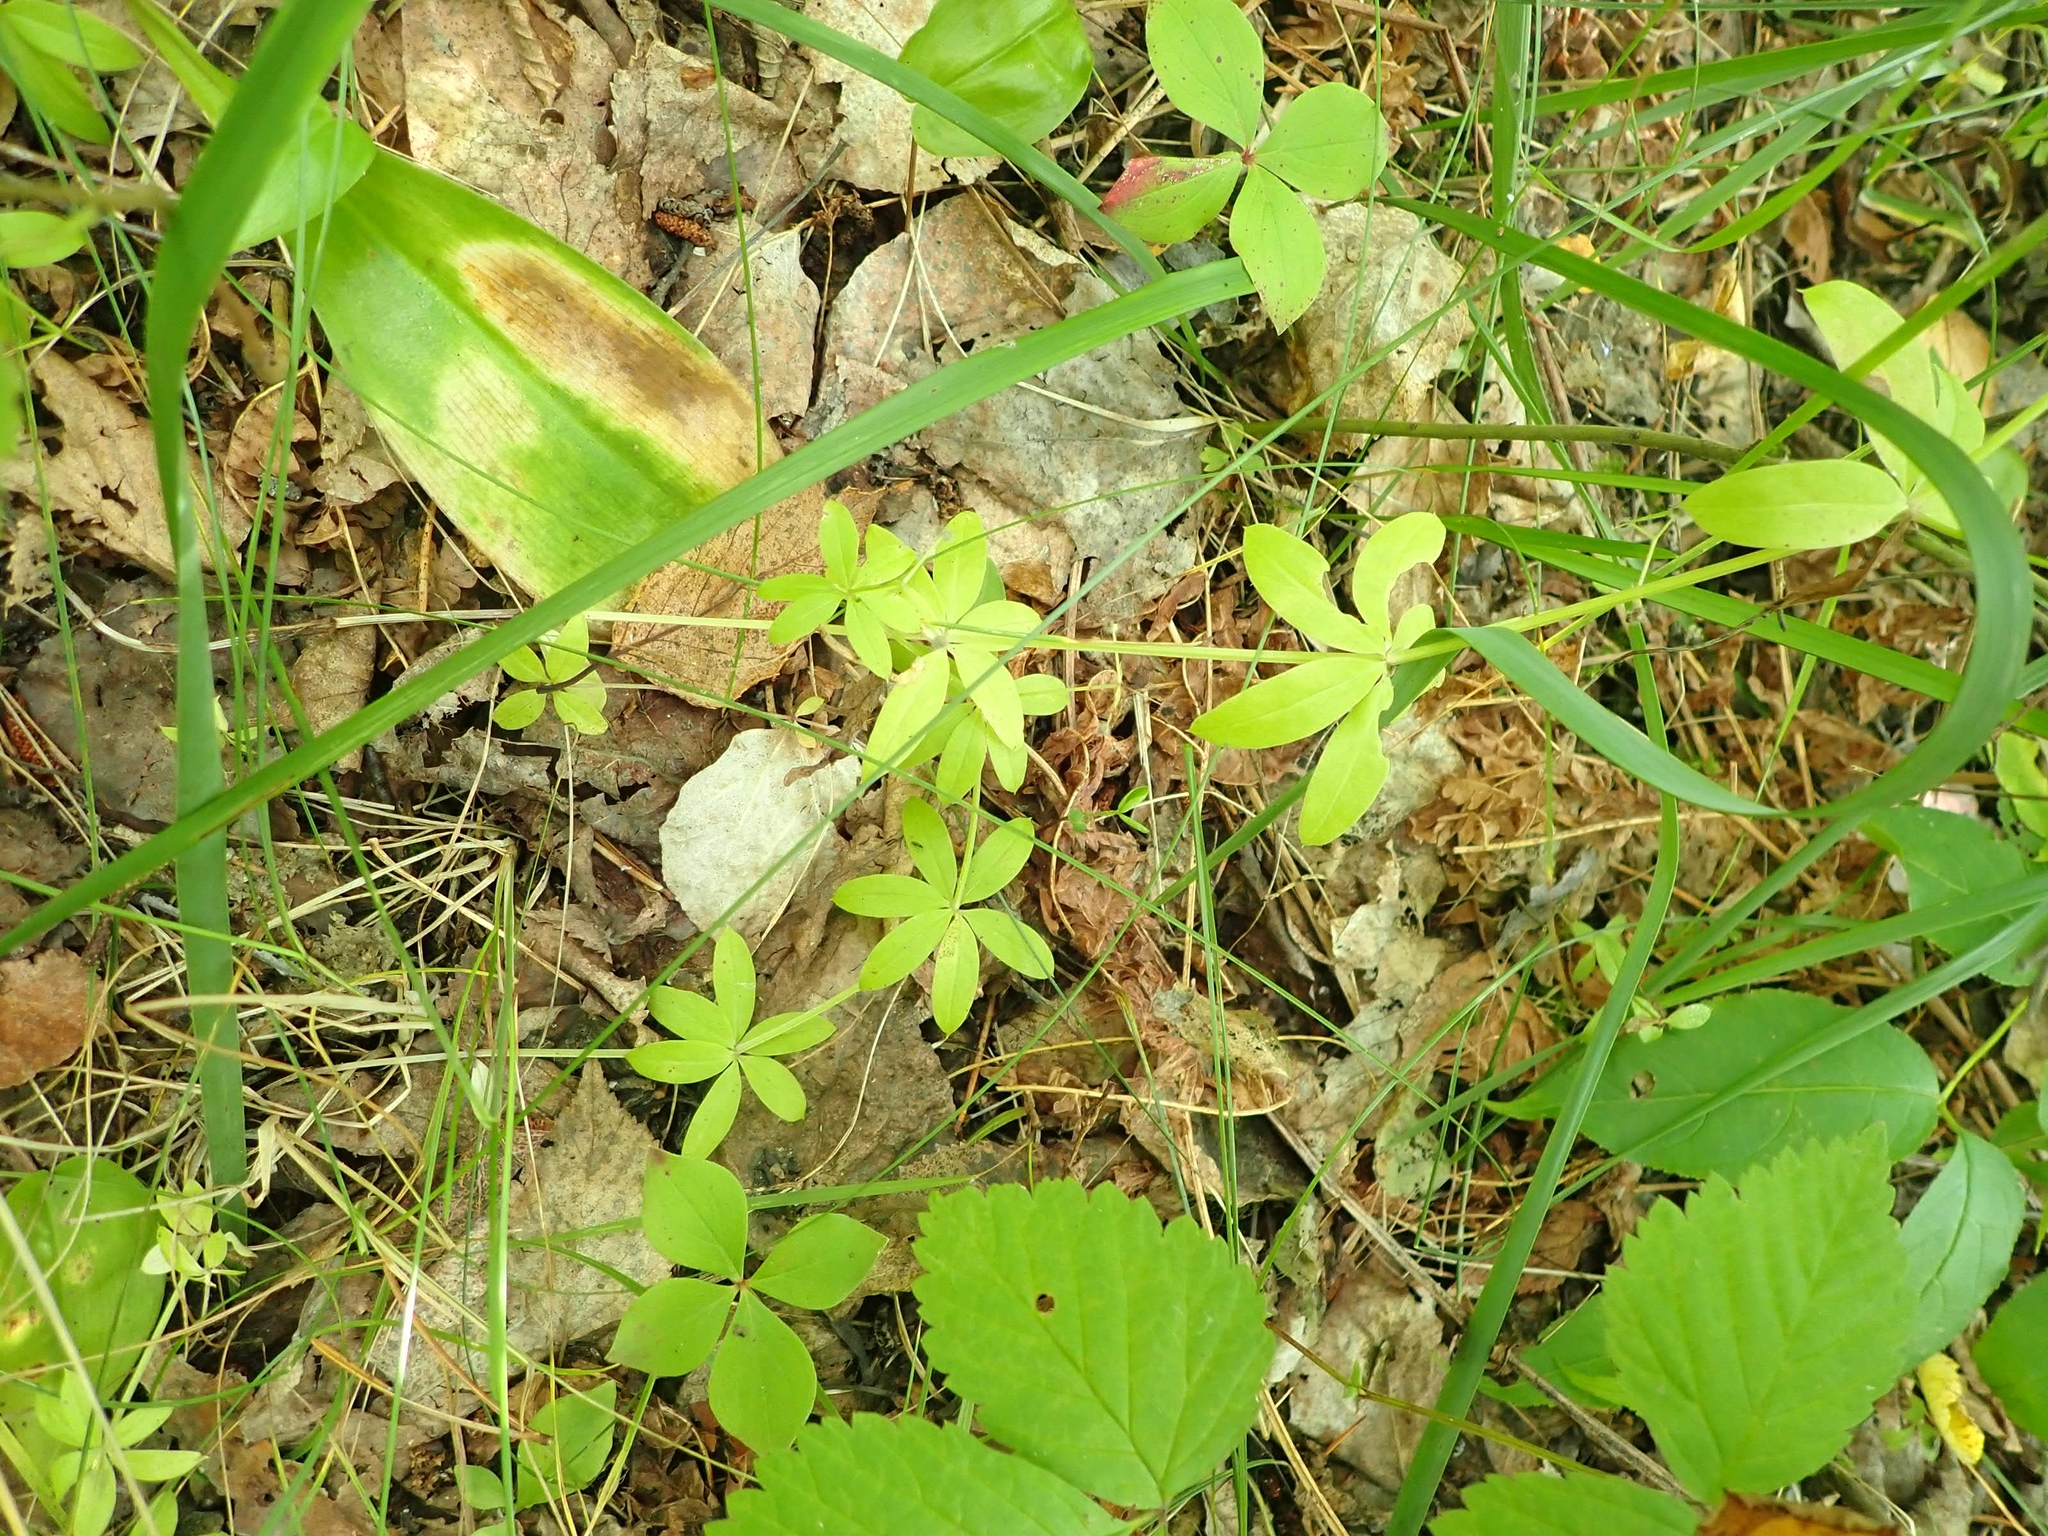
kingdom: Plantae
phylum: Tracheophyta
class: Magnoliopsida
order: Gentianales
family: Rubiaceae
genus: Galium
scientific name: Galium triflorum
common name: Fragrant bedstraw
